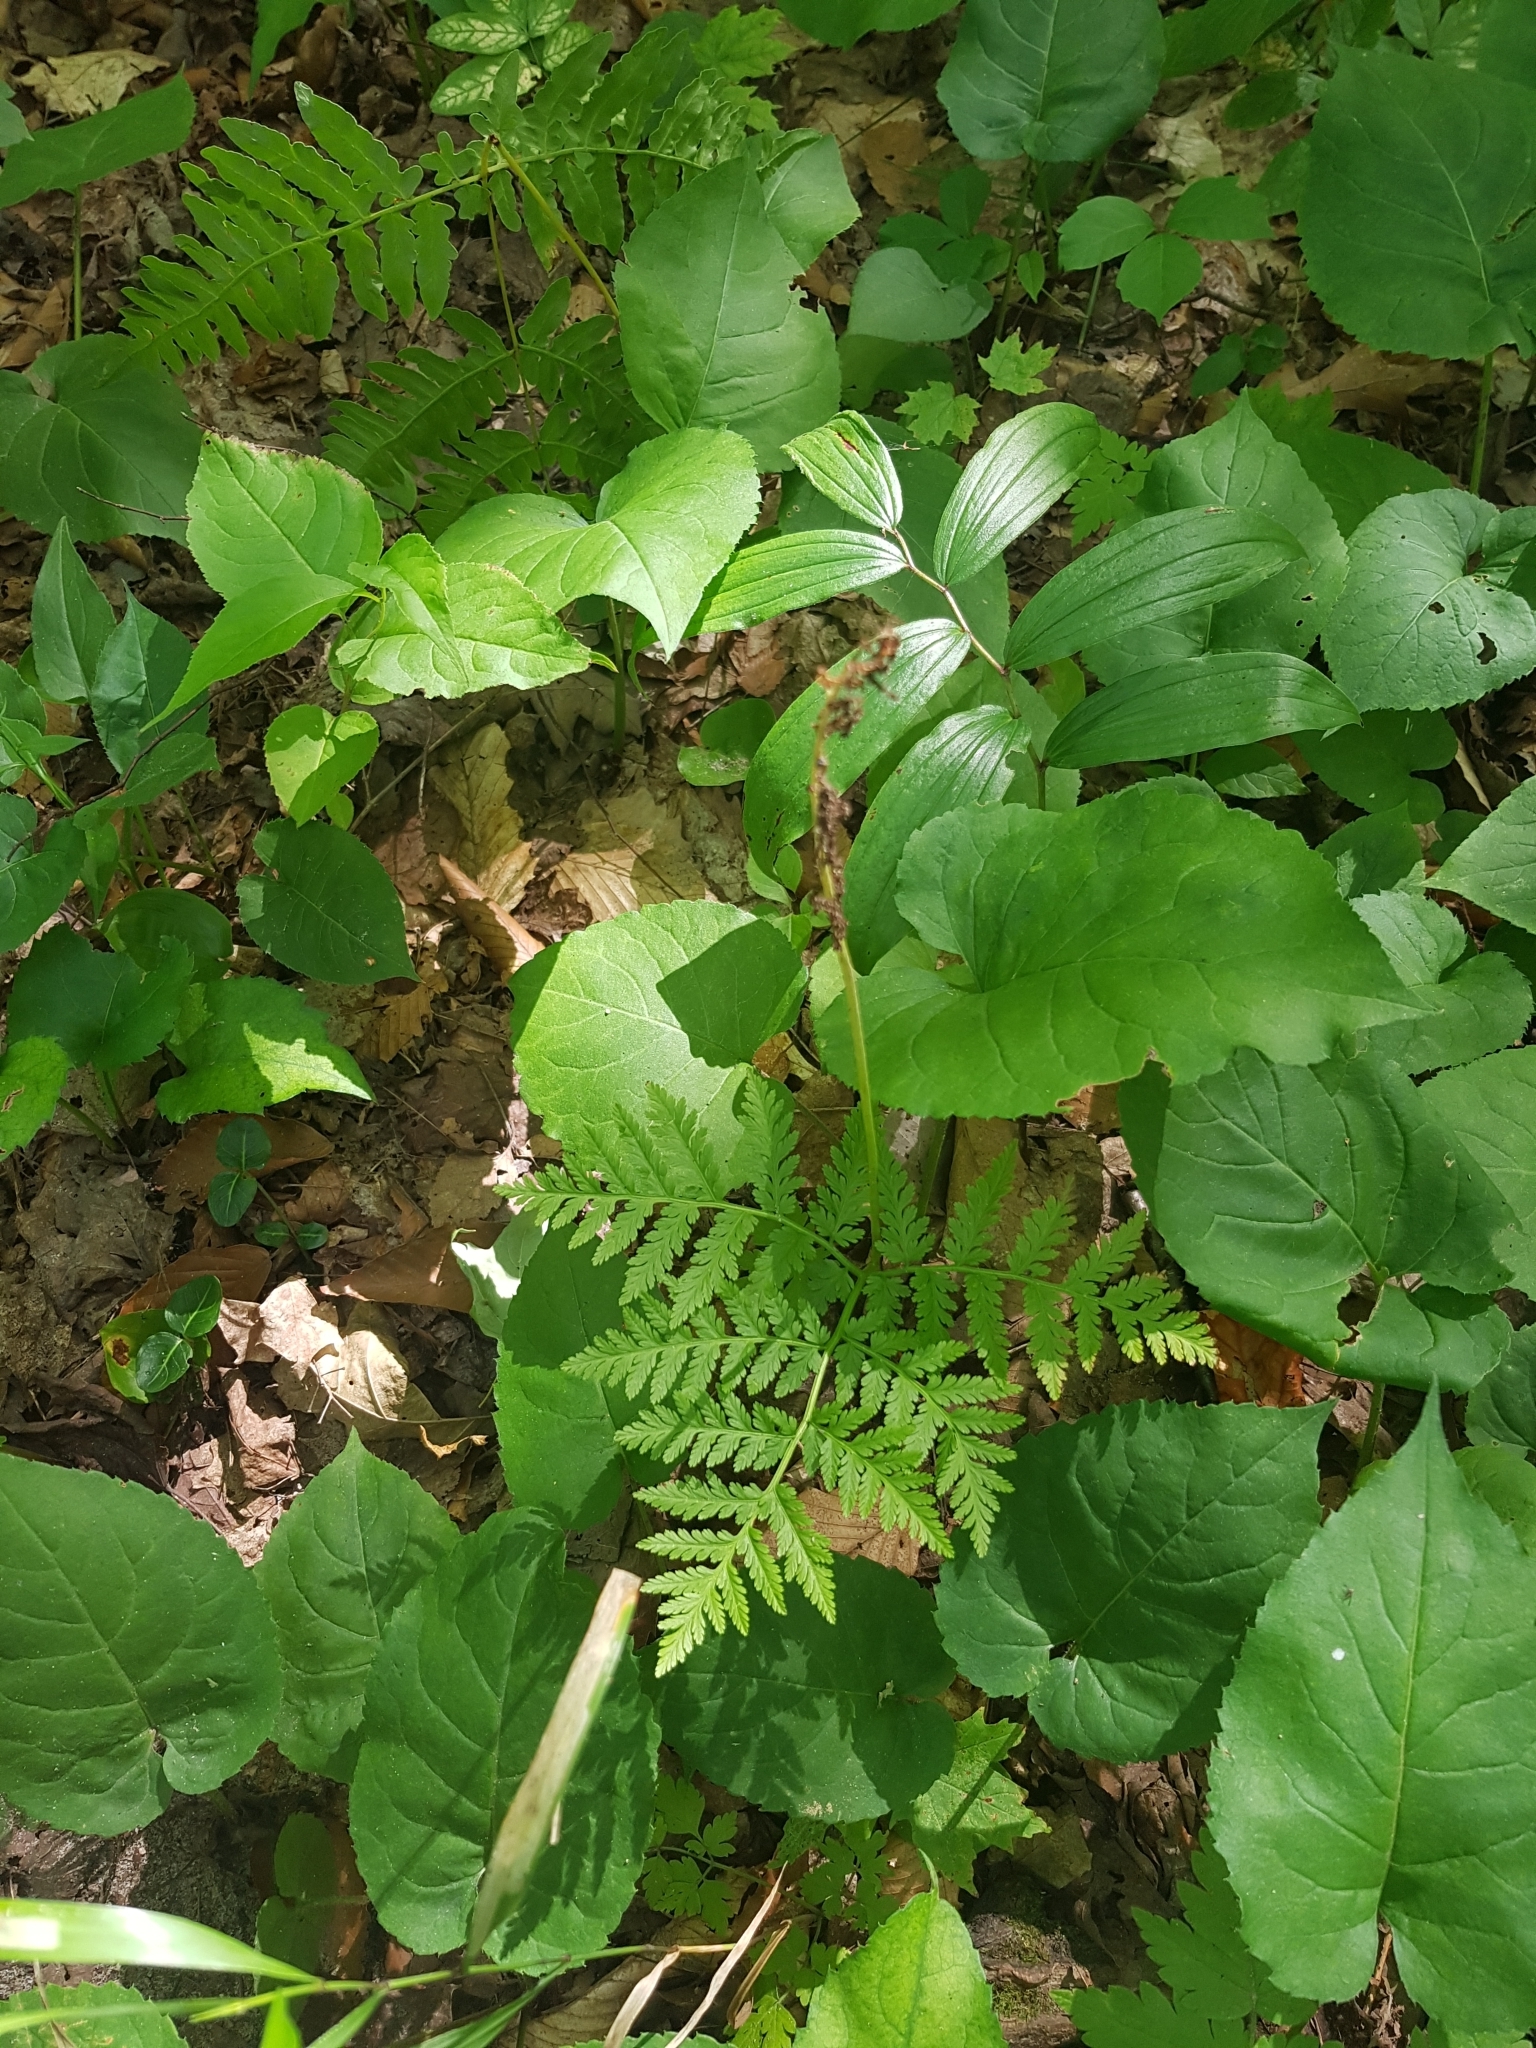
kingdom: Plantae
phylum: Tracheophyta
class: Polypodiopsida
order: Ophioglossales
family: Ophioglossaceae
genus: Botrypus
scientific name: Botrypus virginianus
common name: Common grapefern
